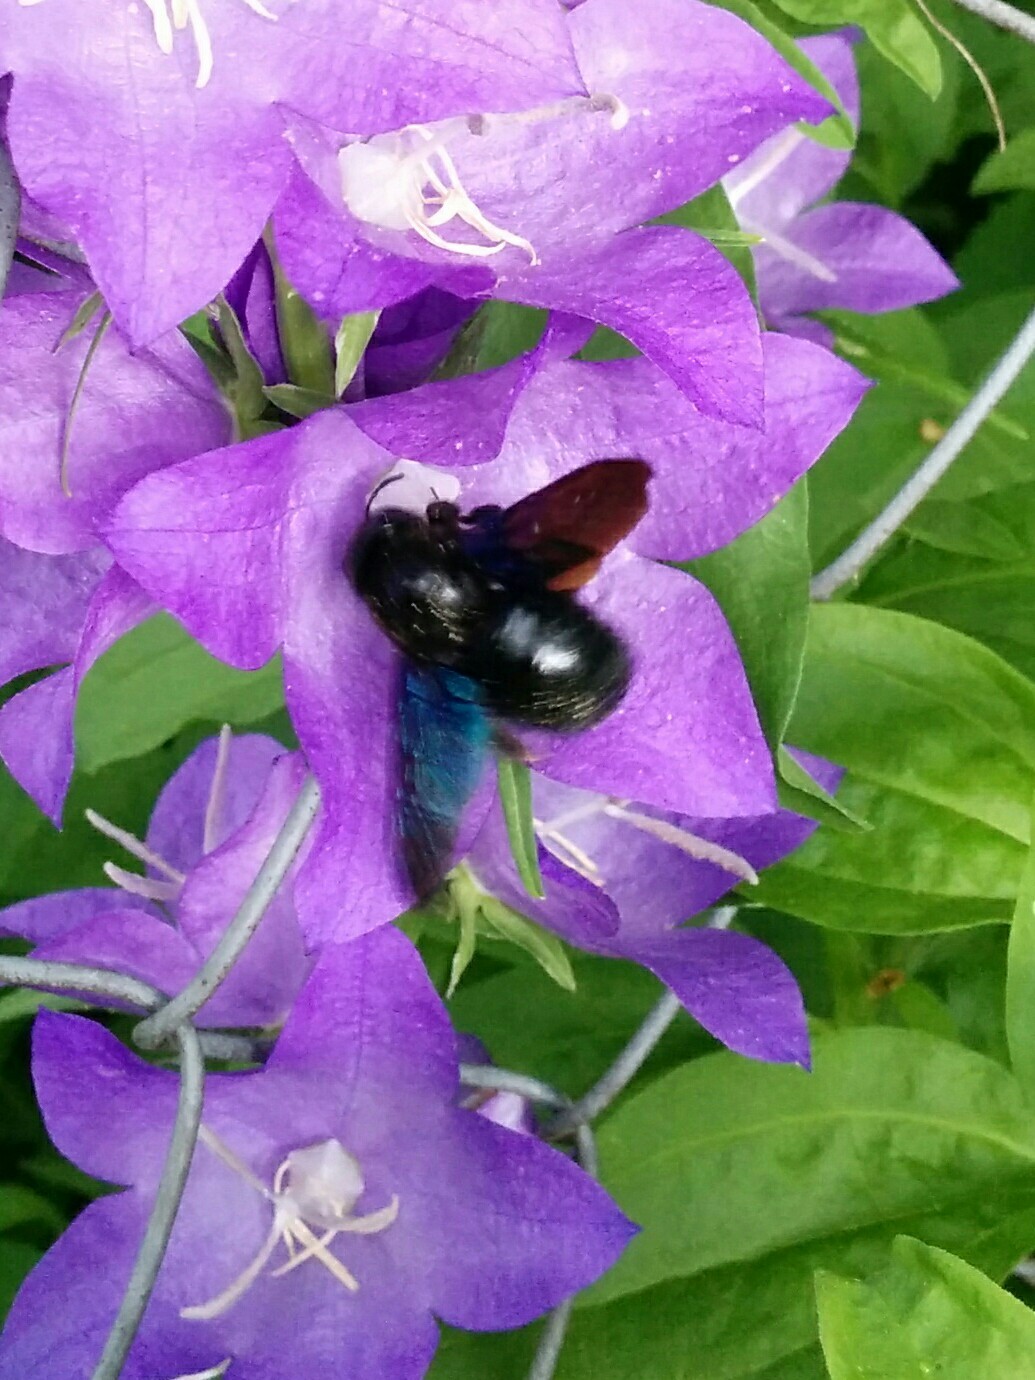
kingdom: Animalia
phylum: Arthropoda
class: Insecta
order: Hymenoptera
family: Apidae
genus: Xylocopa
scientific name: Xylocopa
